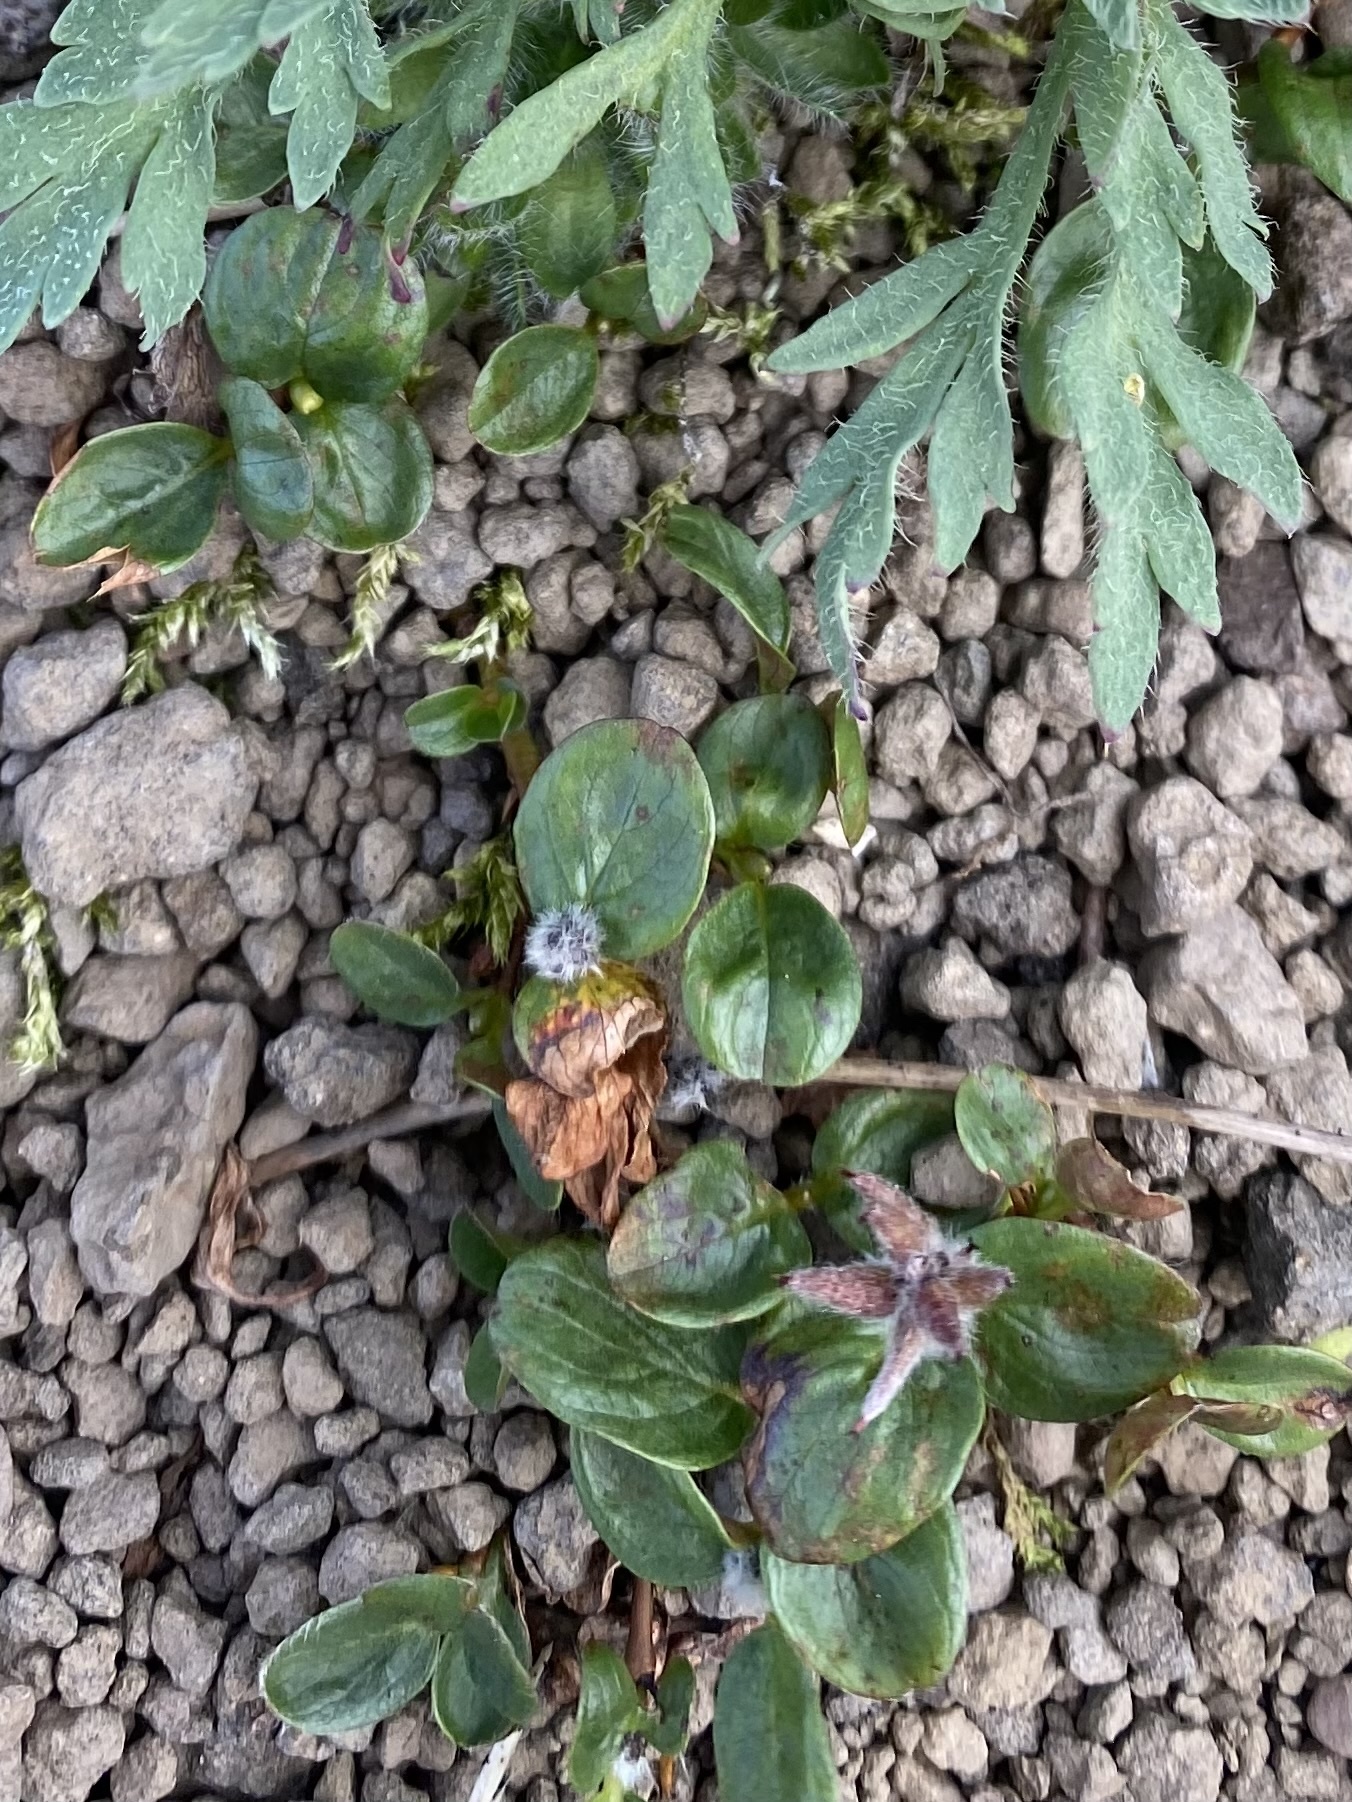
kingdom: Plantae
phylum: Tracheophyta
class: Magnoliopsida
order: Malpighiales
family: Salicaceae
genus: Salix
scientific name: Salix polaris
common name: Polar willow
